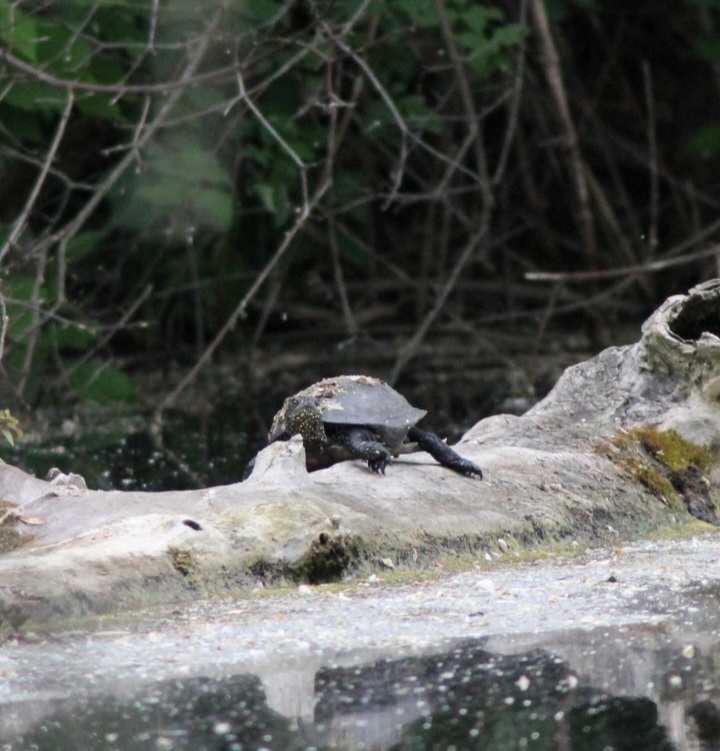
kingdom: Animalia
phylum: Chordata
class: Testudines
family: Emydidae
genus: Emys
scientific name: Emys orbicularis
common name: European pond turtle
